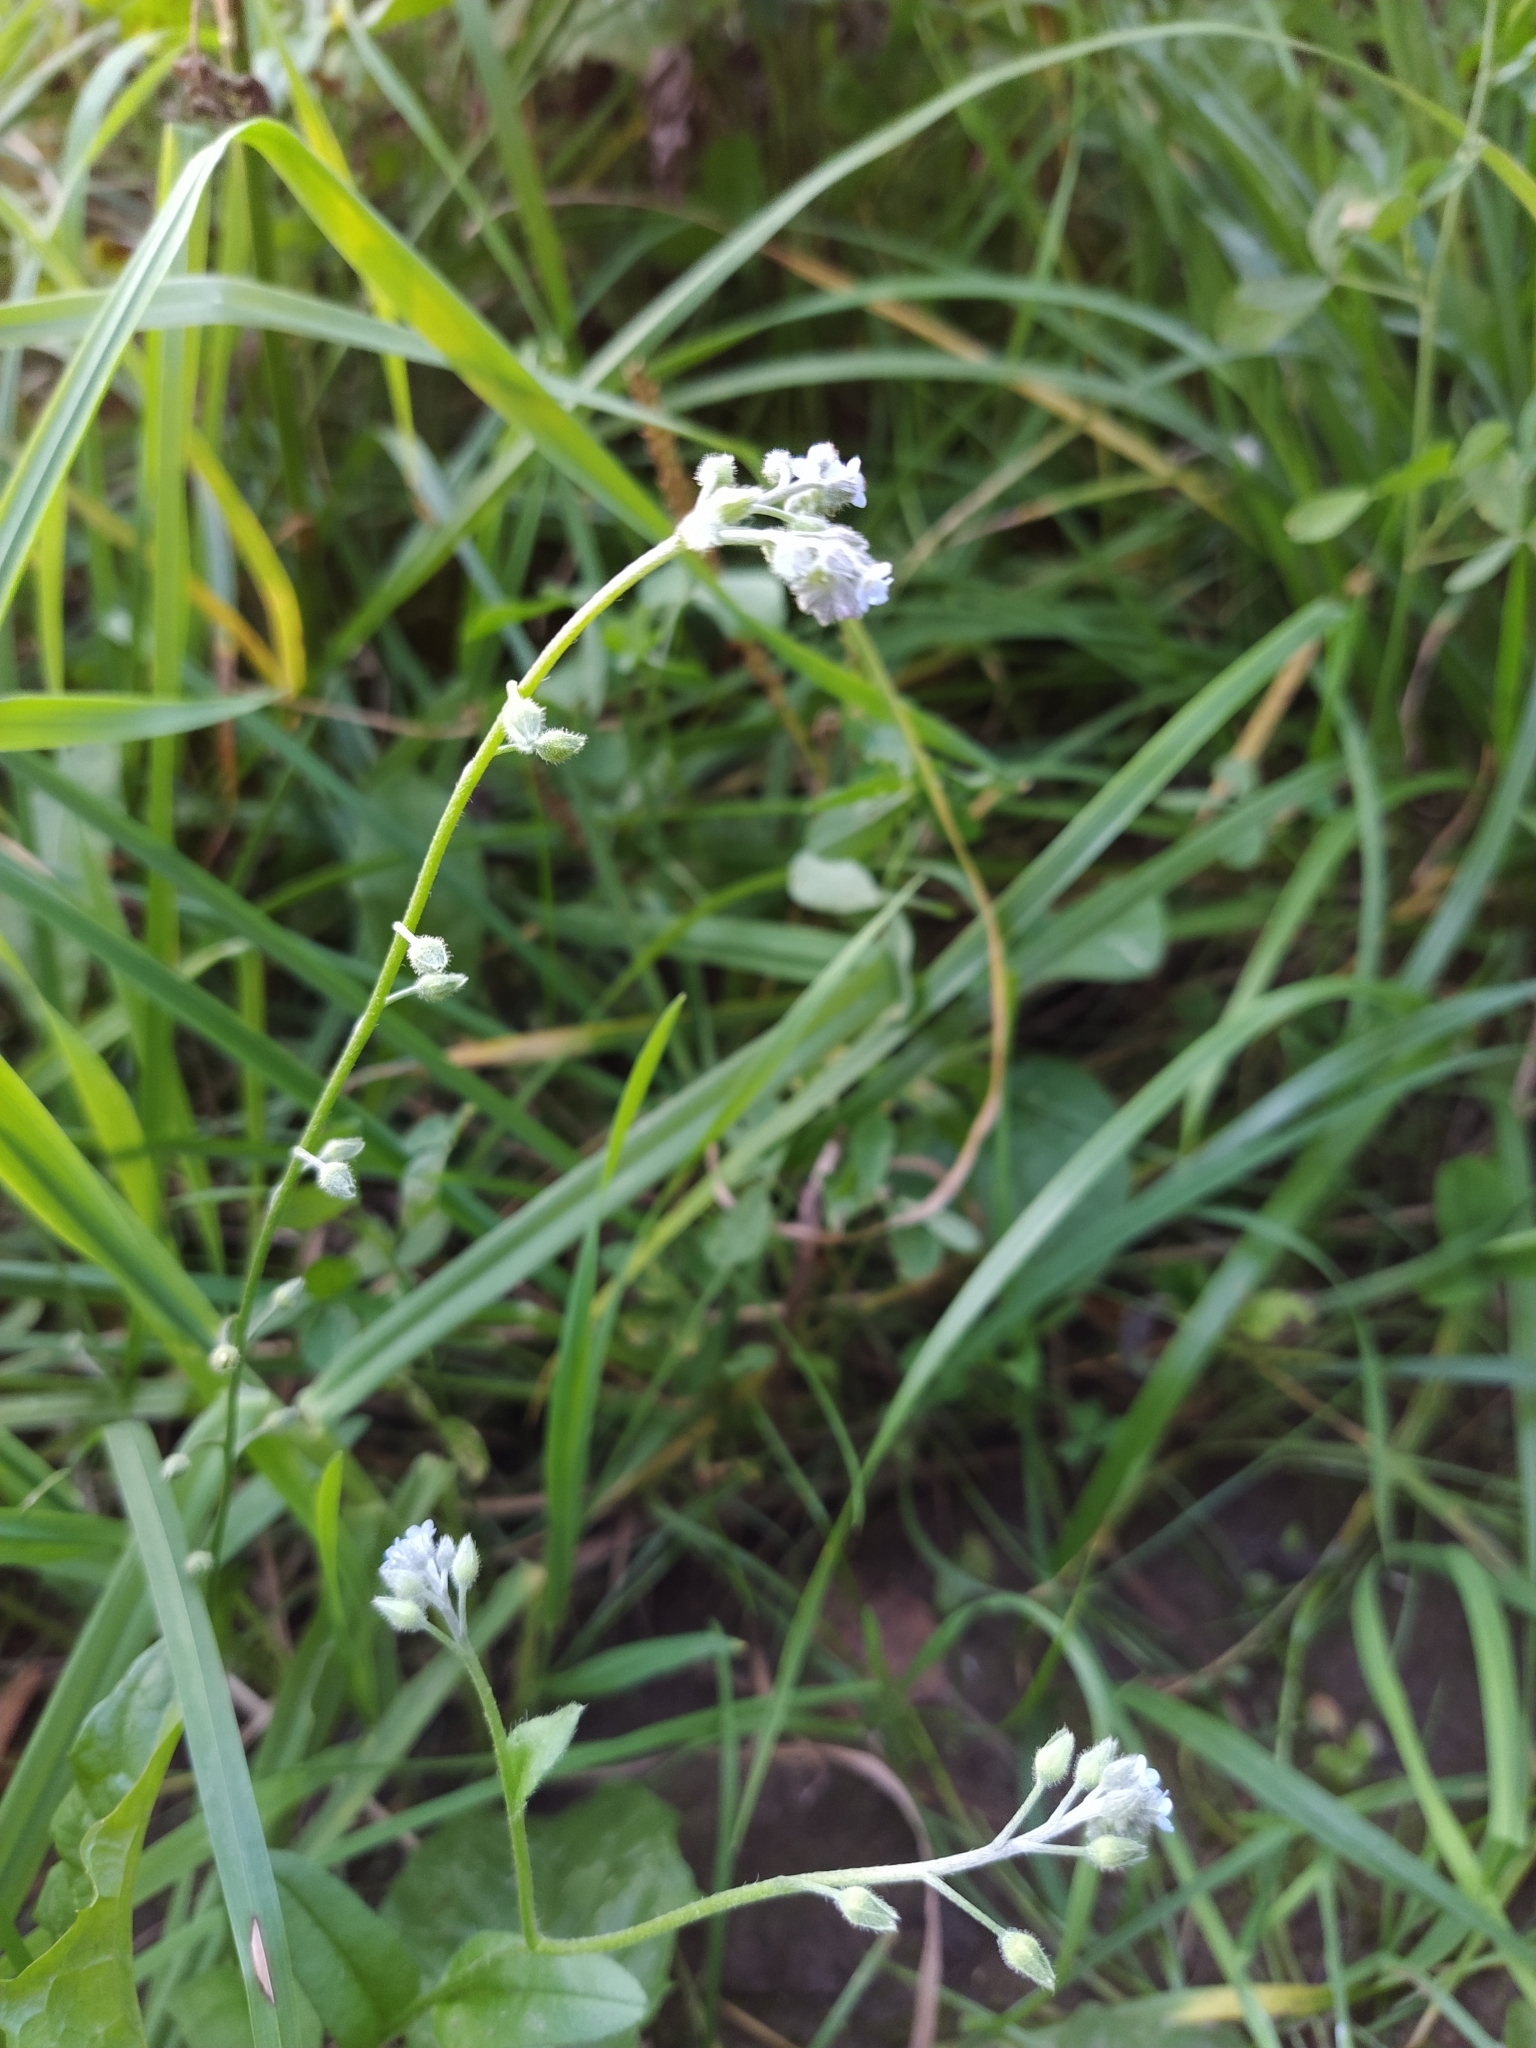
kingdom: Plantae
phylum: Tracheophyta
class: Magnoliopsida
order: Boraginales
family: Boraginaceae
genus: Myosotis
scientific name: Myosotis arvensis
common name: Field forget-me-not
